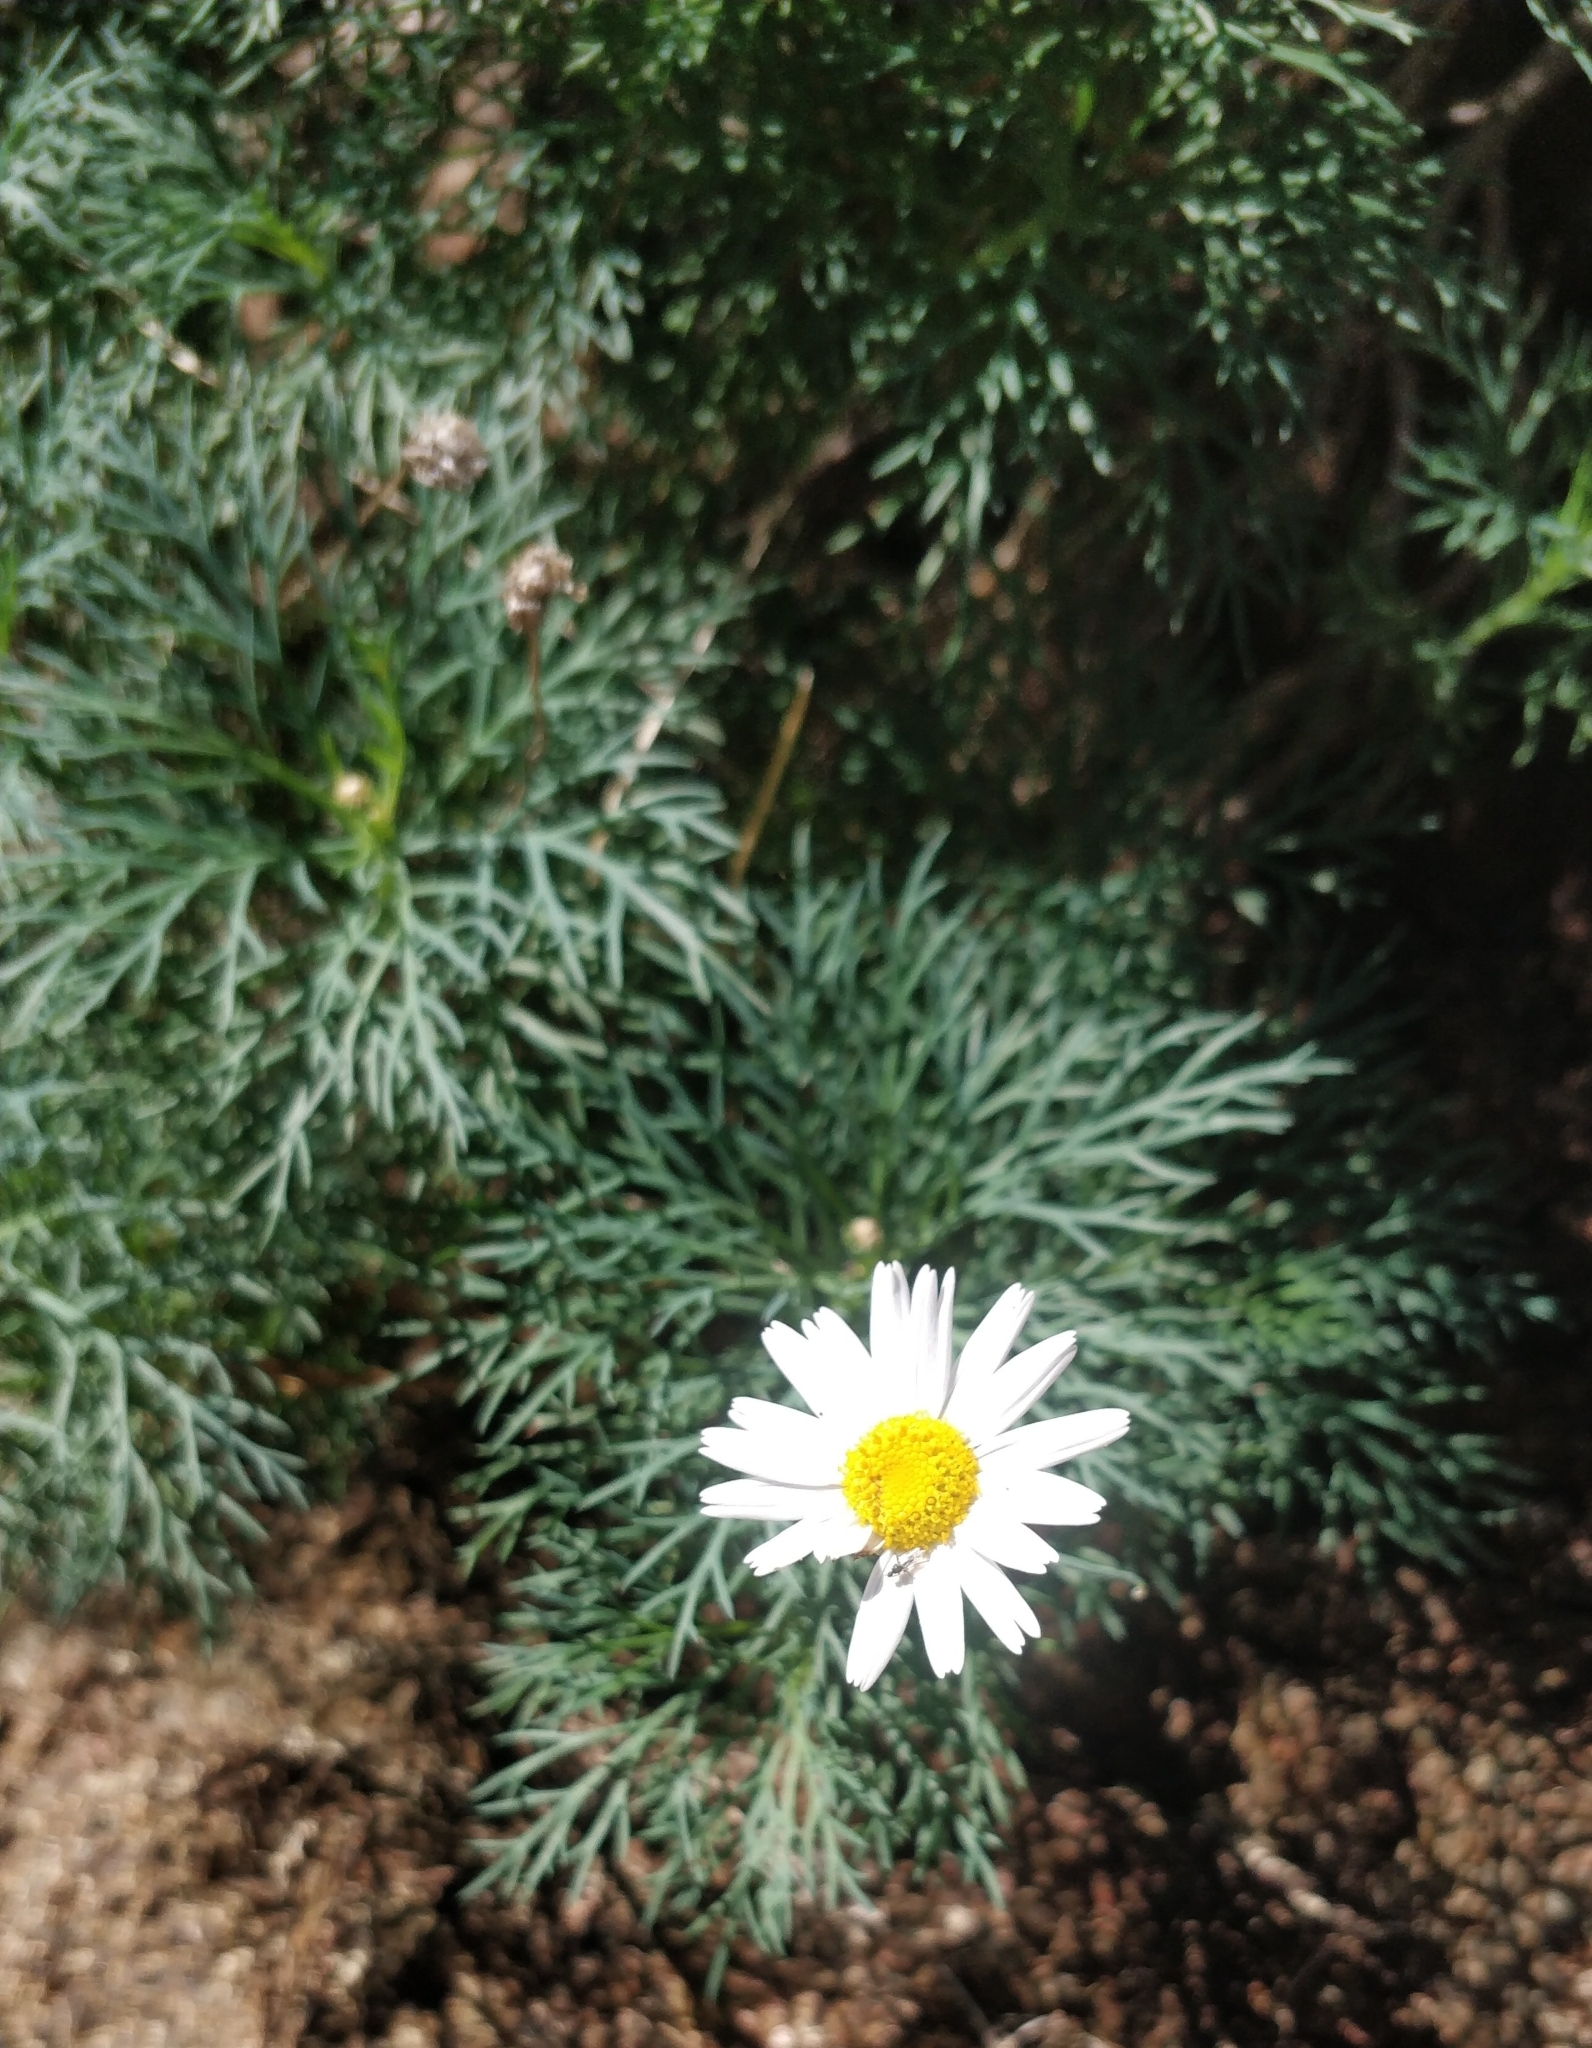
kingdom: Plantae
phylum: Tracheophyta
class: Magnoliopsida
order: Asterales
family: Asteraceae
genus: Argyranthemum
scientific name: Argyranthemum foeniculaceum
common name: Canary island marguerite
